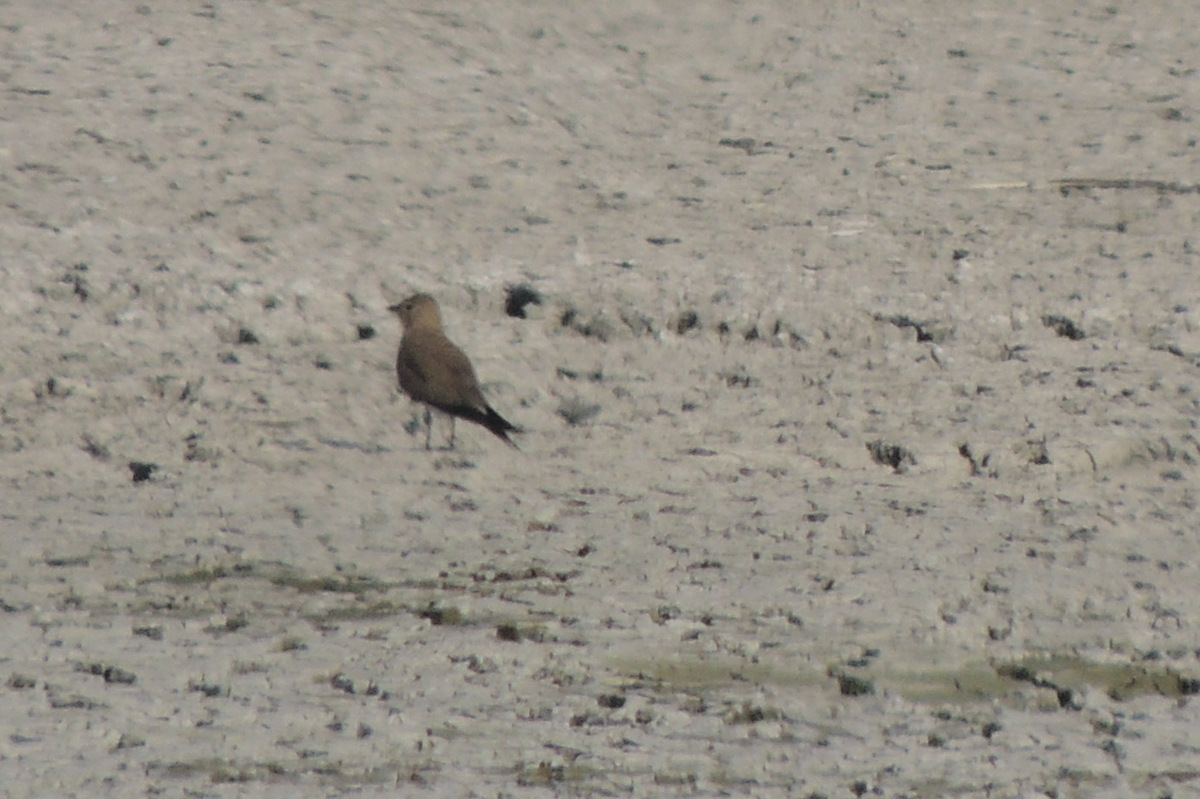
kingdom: Animalia
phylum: Chordata
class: Aves
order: Charadriiformes
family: Glareolidae
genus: Glareola
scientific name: Glareola pratincola
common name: Collared pratincole
